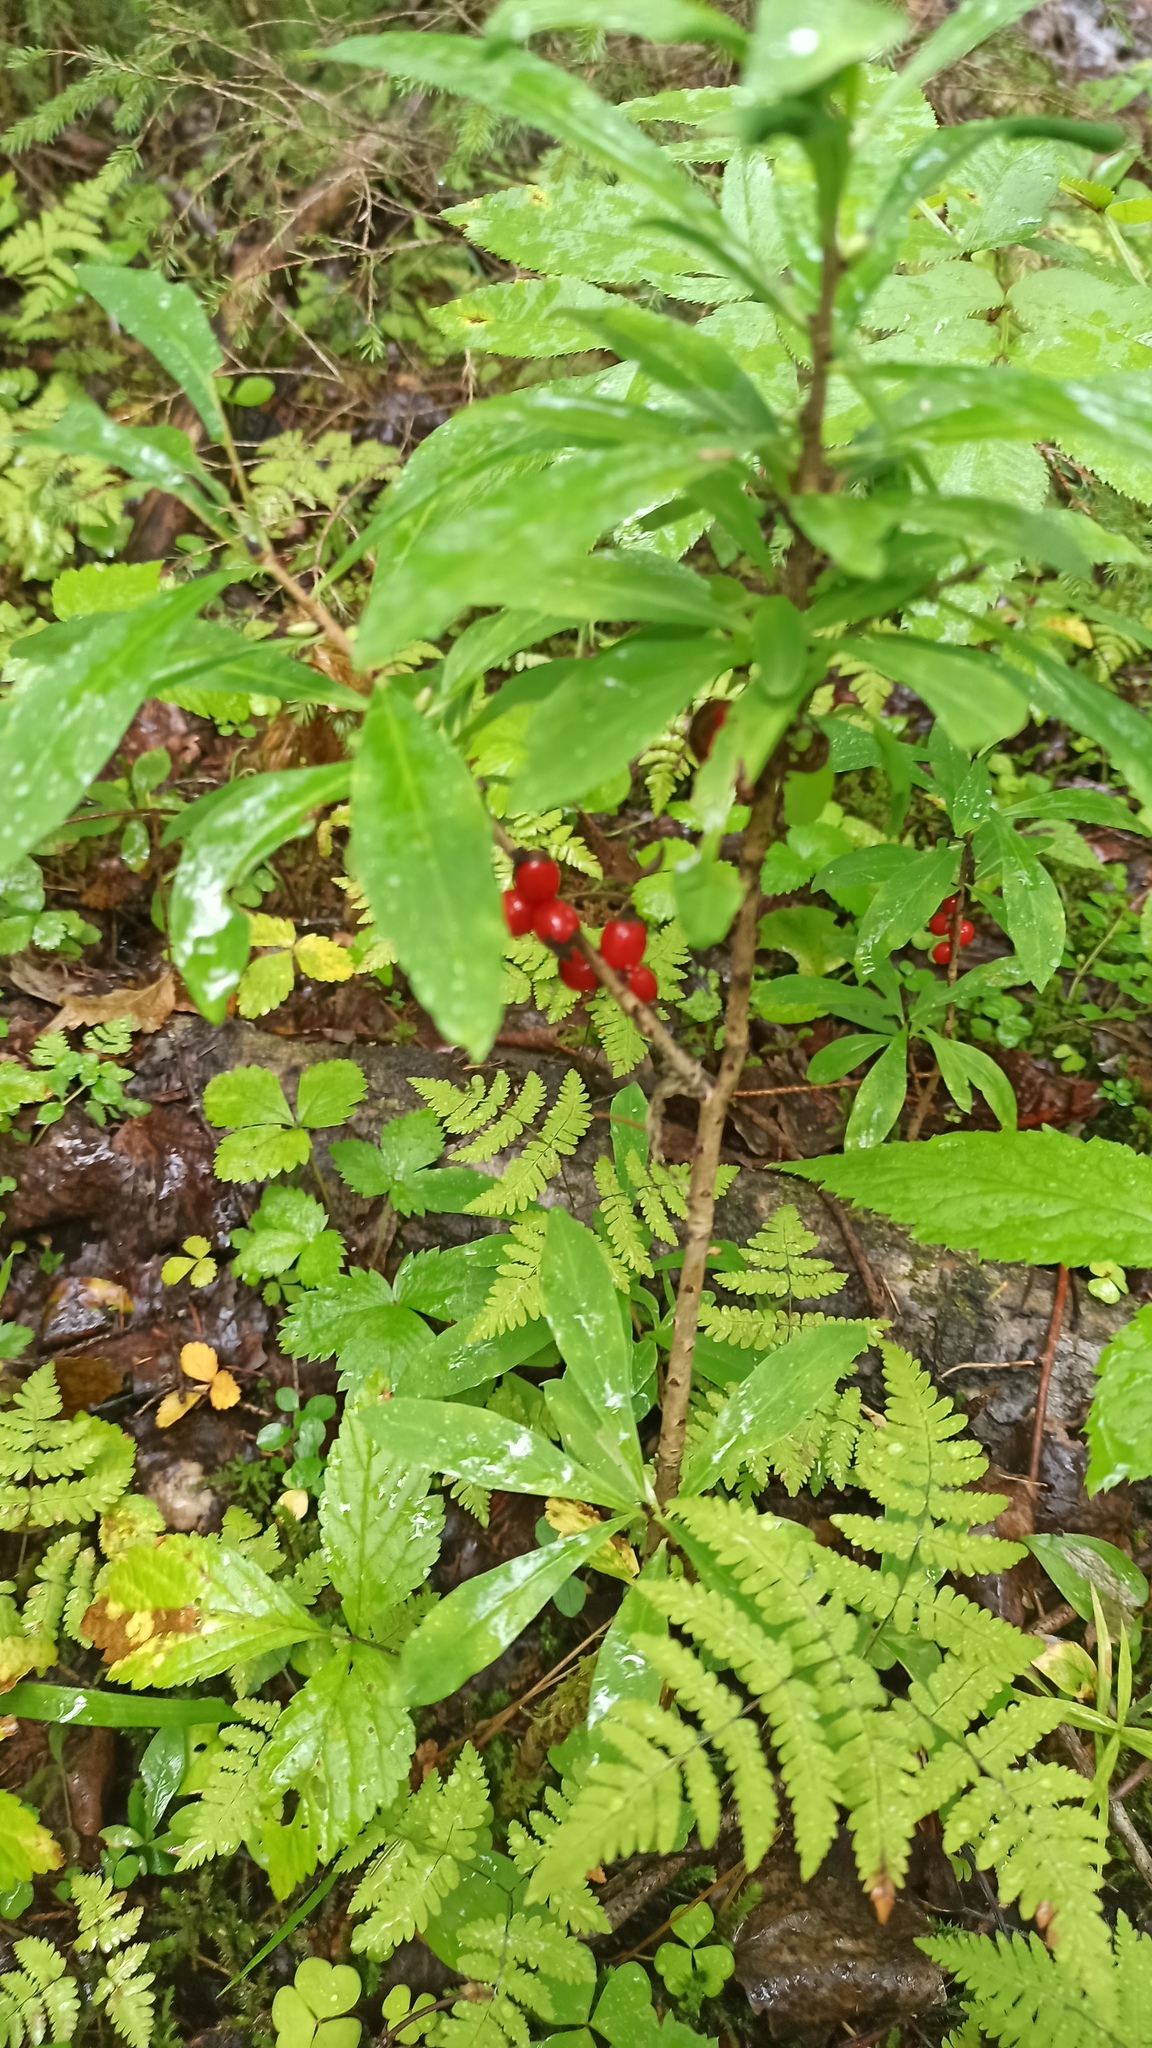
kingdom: Plantae
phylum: Tracheophyta
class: Magnoliopsida
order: Malvales
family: Thymelaeaceae
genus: Daphne
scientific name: Daphne mezereum
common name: Mezereon
